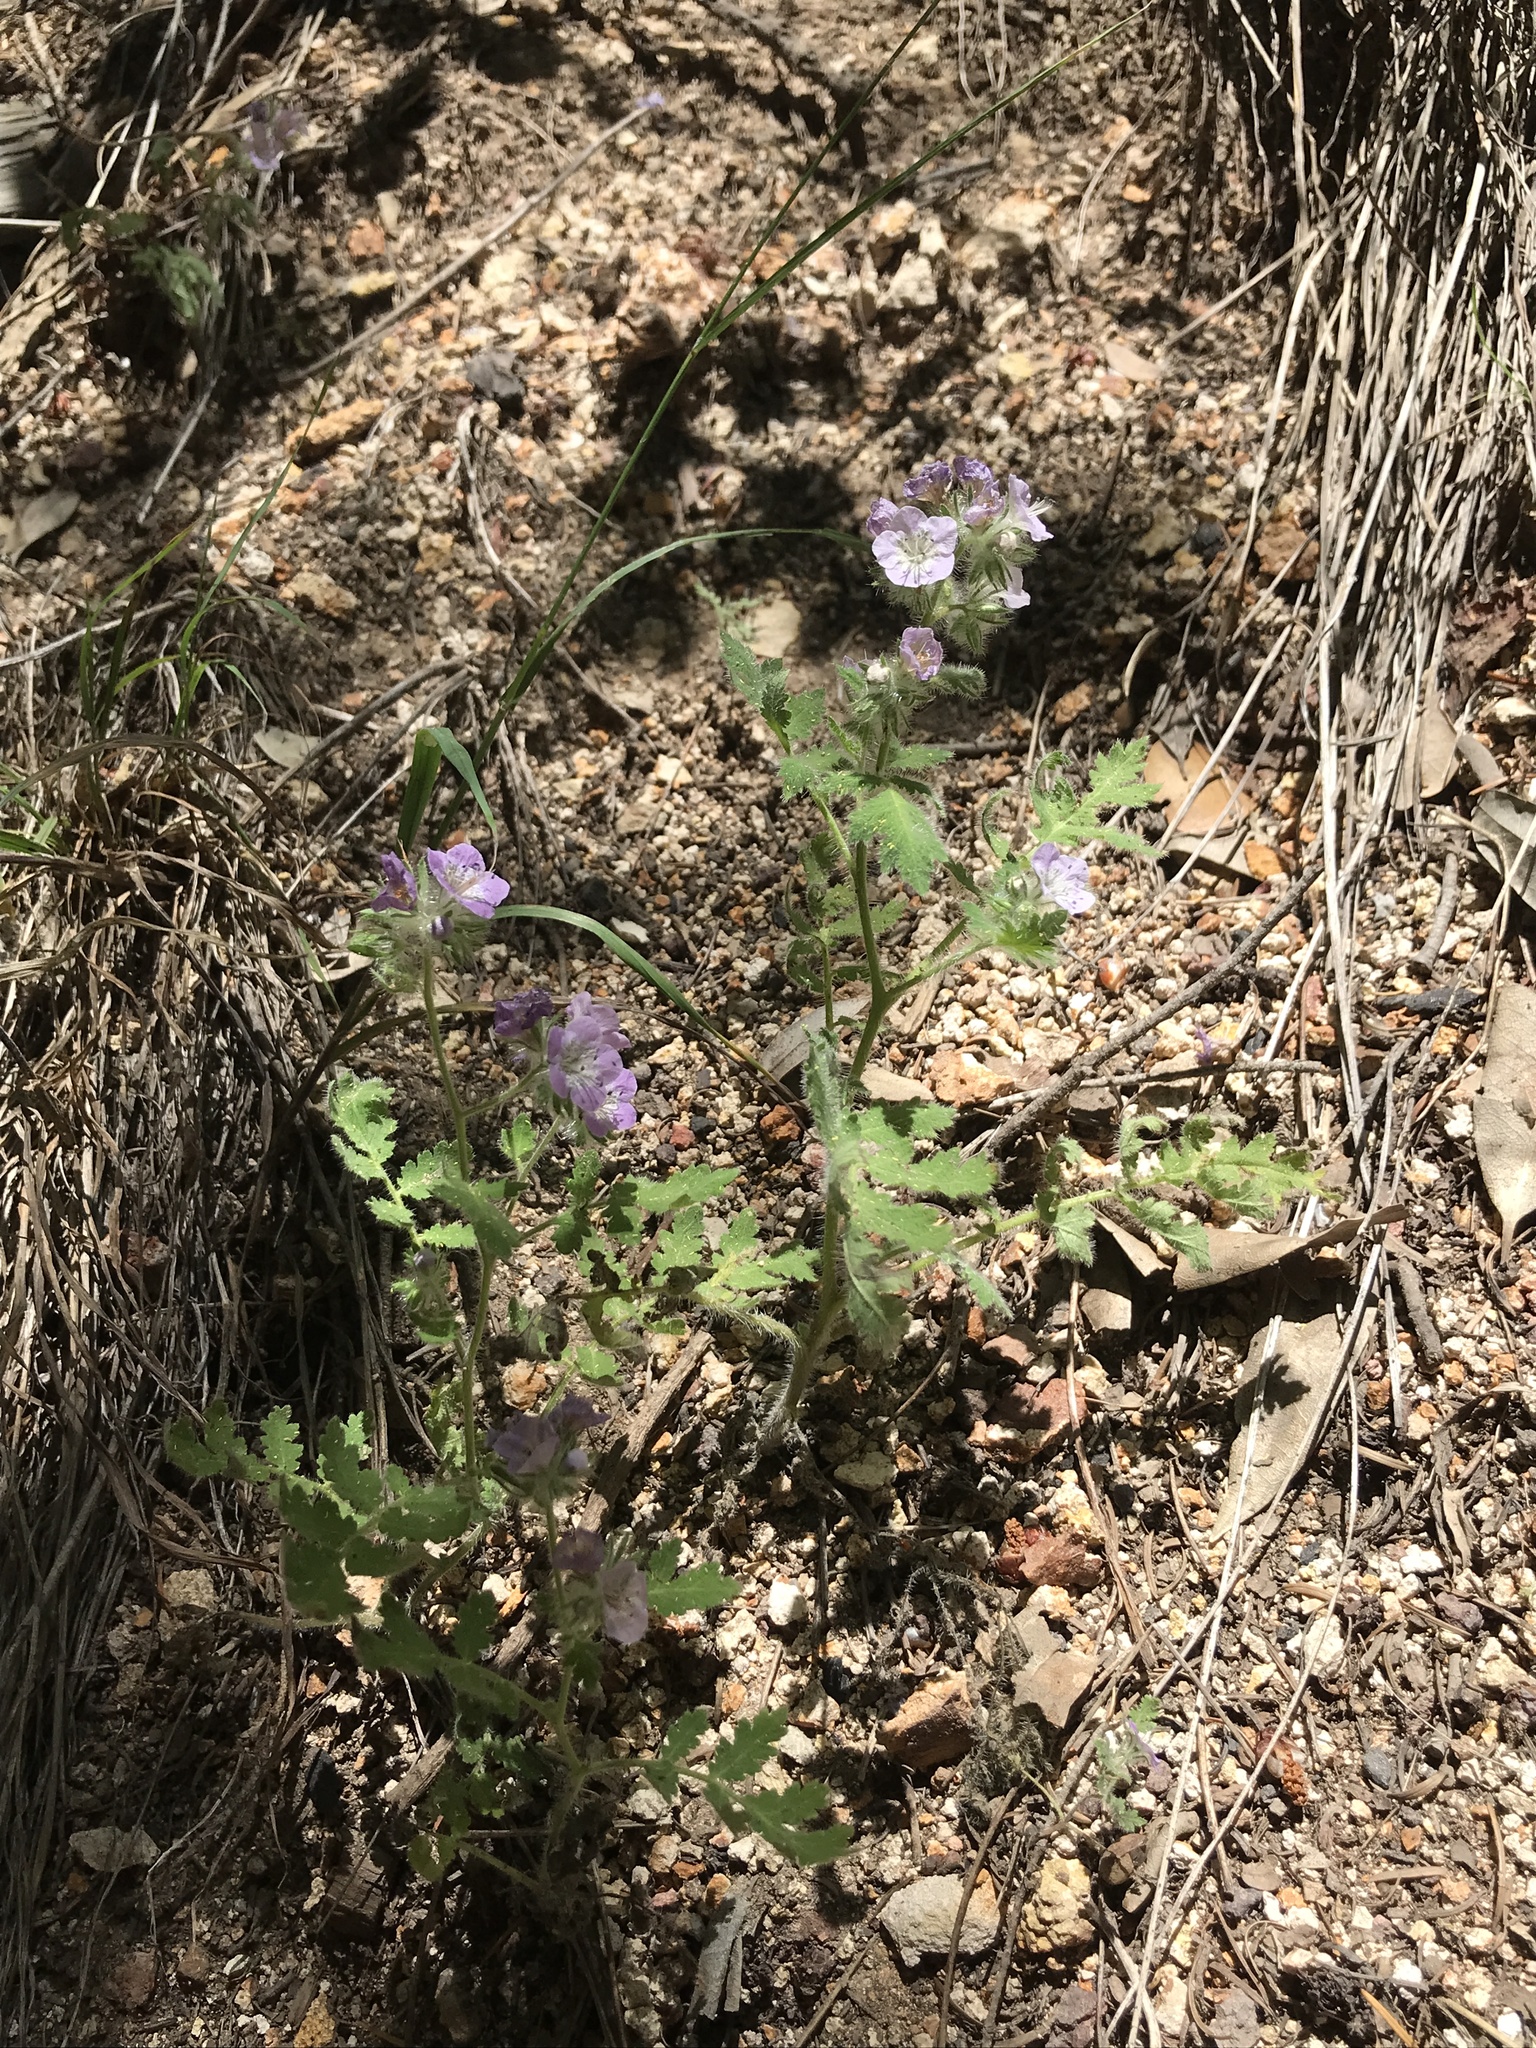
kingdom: Plantae
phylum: Tracheophyta
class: Magnoliopsida
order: Boraginales
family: Hydrophyllaceae
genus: Phacelia
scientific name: Phacelia cicutaria
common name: Caterpillar phacelia
